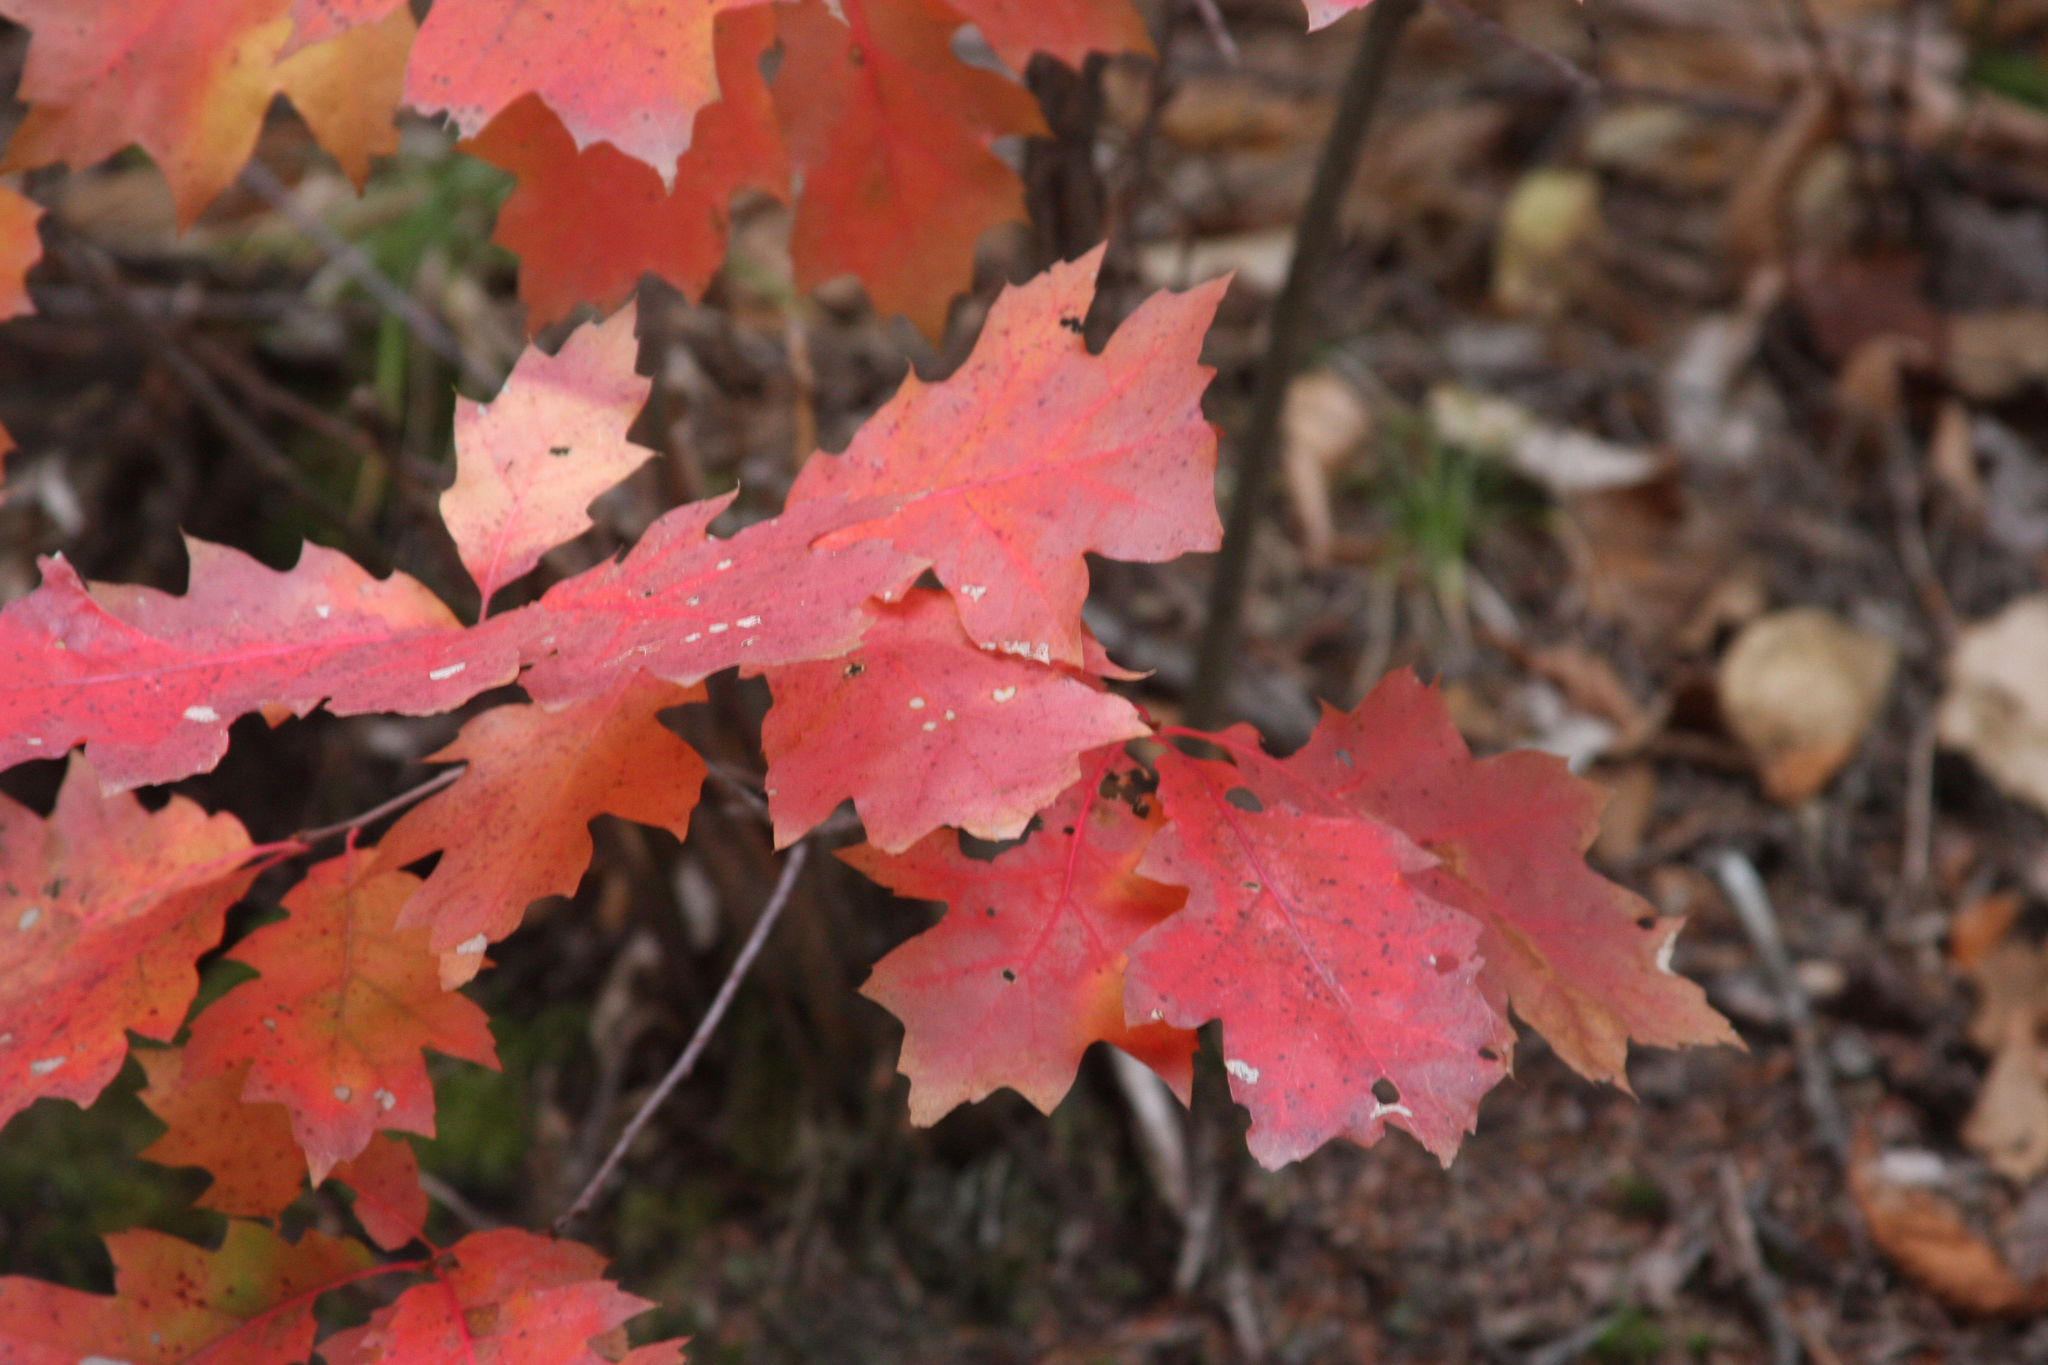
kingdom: Plantae
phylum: Tracheophyta
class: Magnoliopsida
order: Fagales
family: Fagaceae
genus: Quercus
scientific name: Quercus rubra
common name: Red oak
